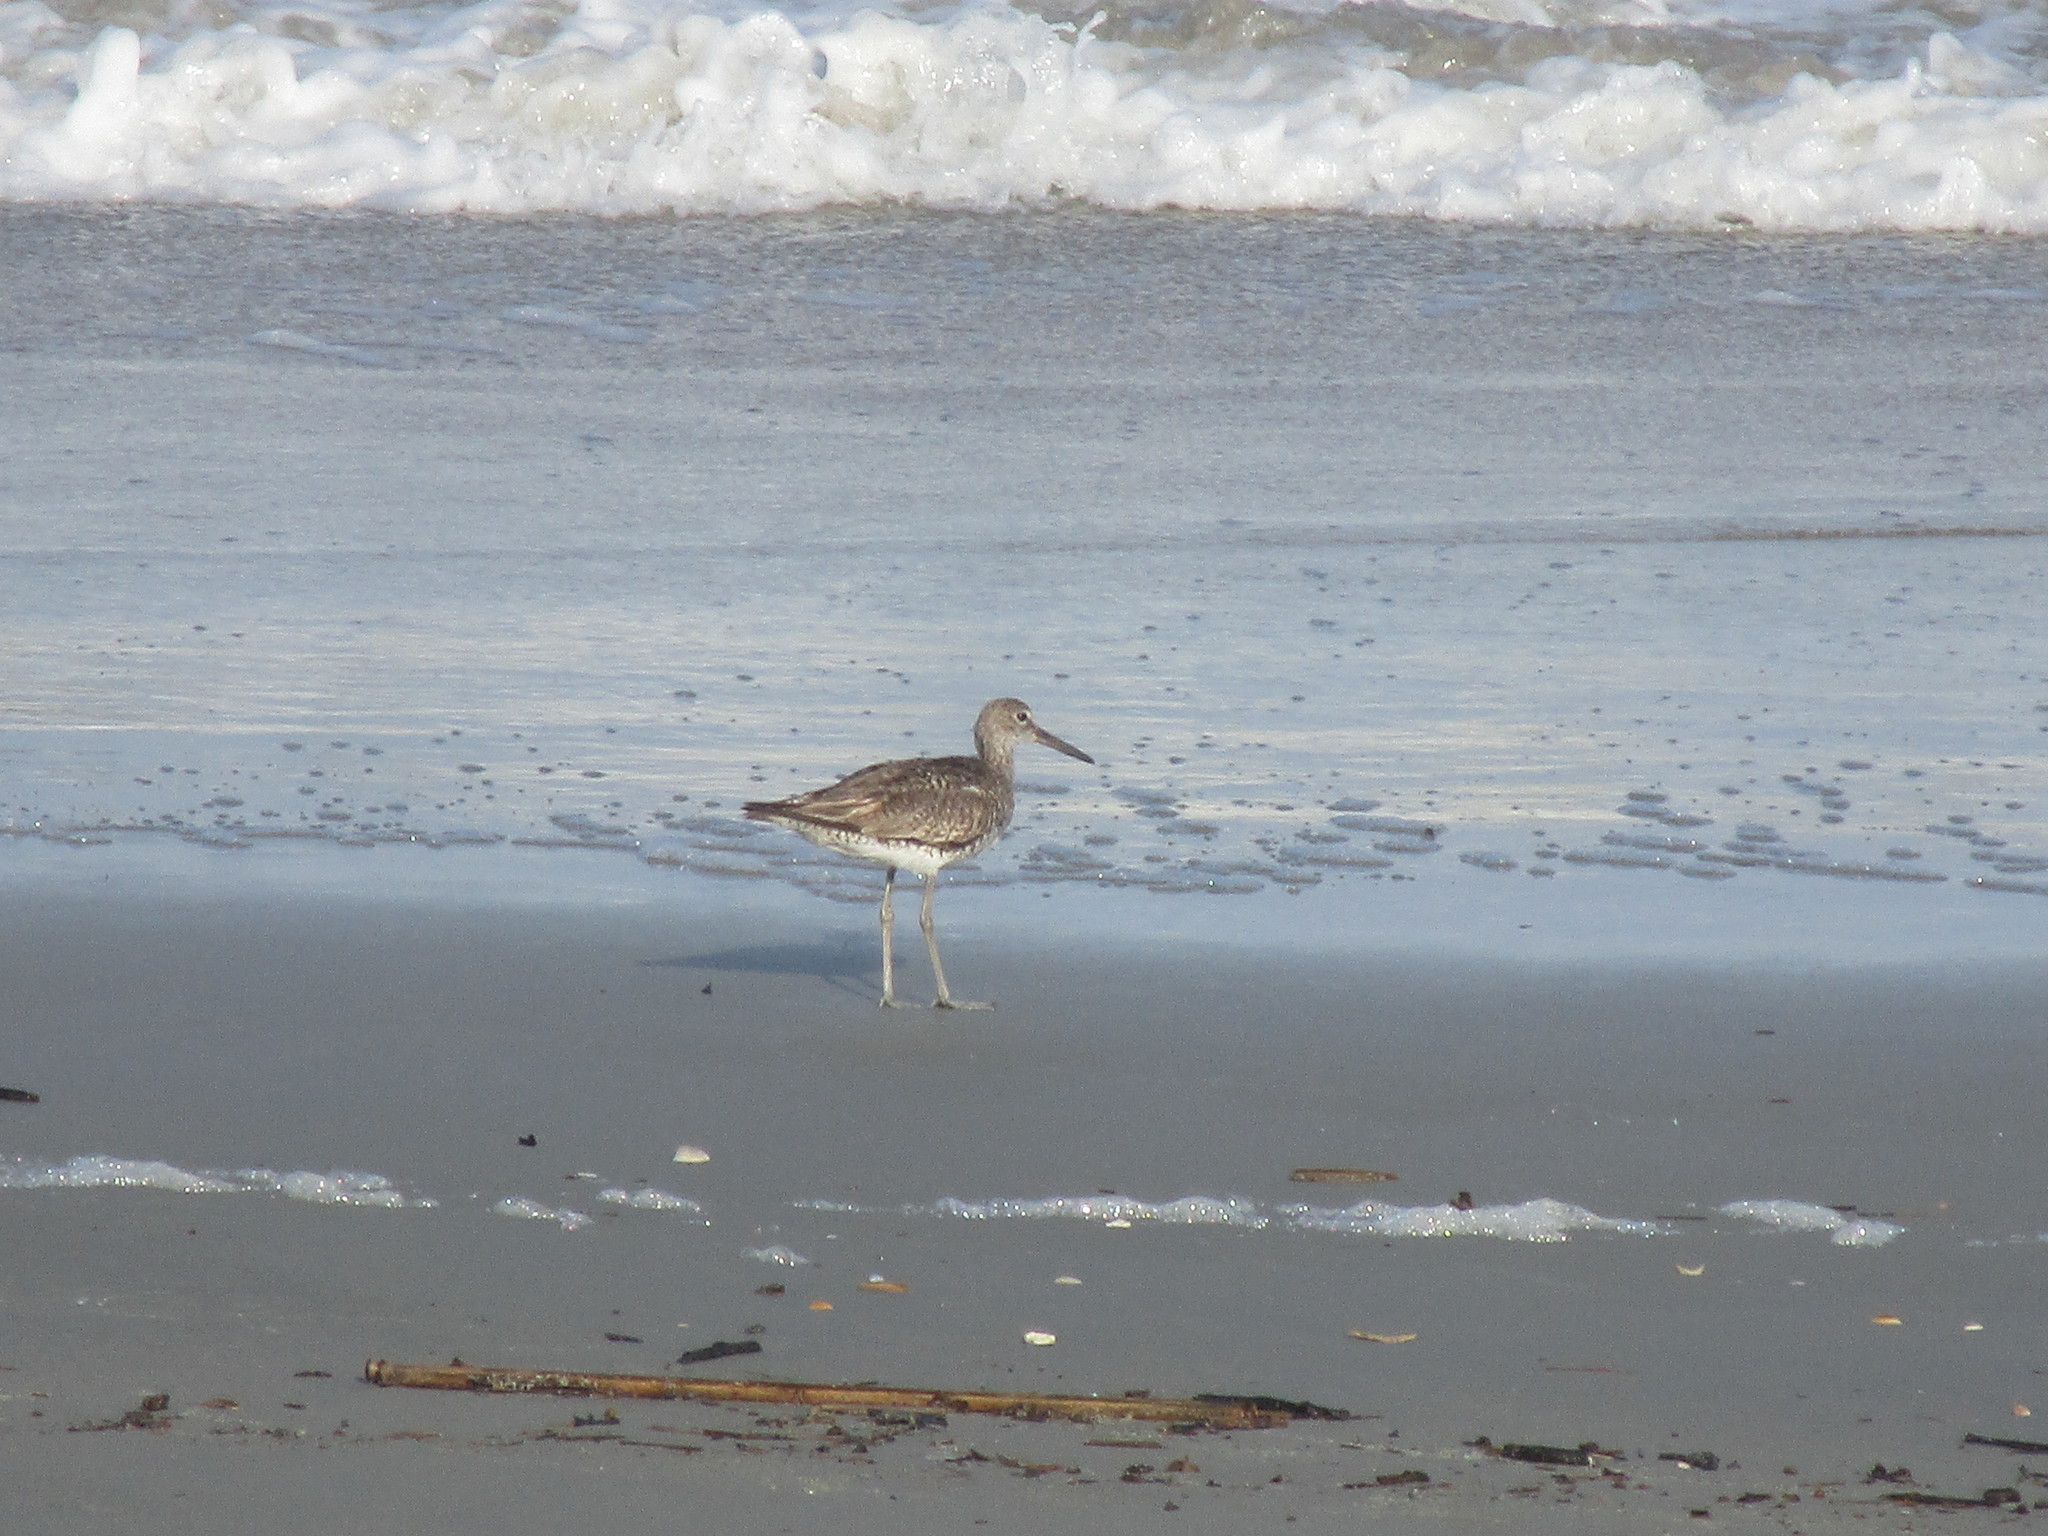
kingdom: Animalia
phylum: Chordata
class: Aves
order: Charadriiformes
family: Scolopacidae
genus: Tringa
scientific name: Tringa semipalmata
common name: Willet
